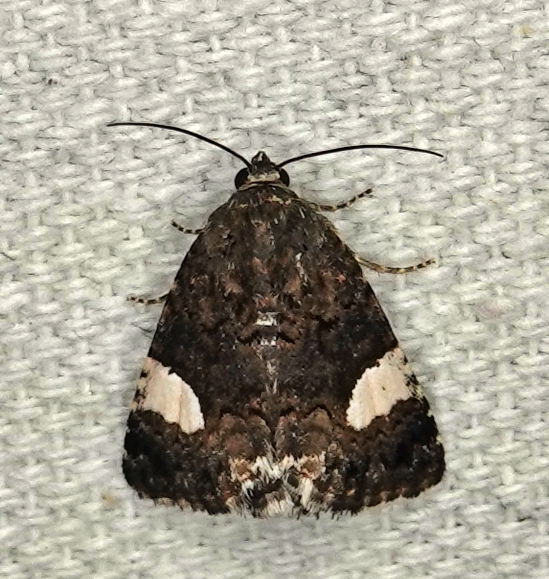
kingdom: Animalia
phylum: Arthropoda
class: Insecta
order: Lepidoptera
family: Erebidae
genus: Tyta
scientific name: Tyta luctuosa
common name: Four-spotted
